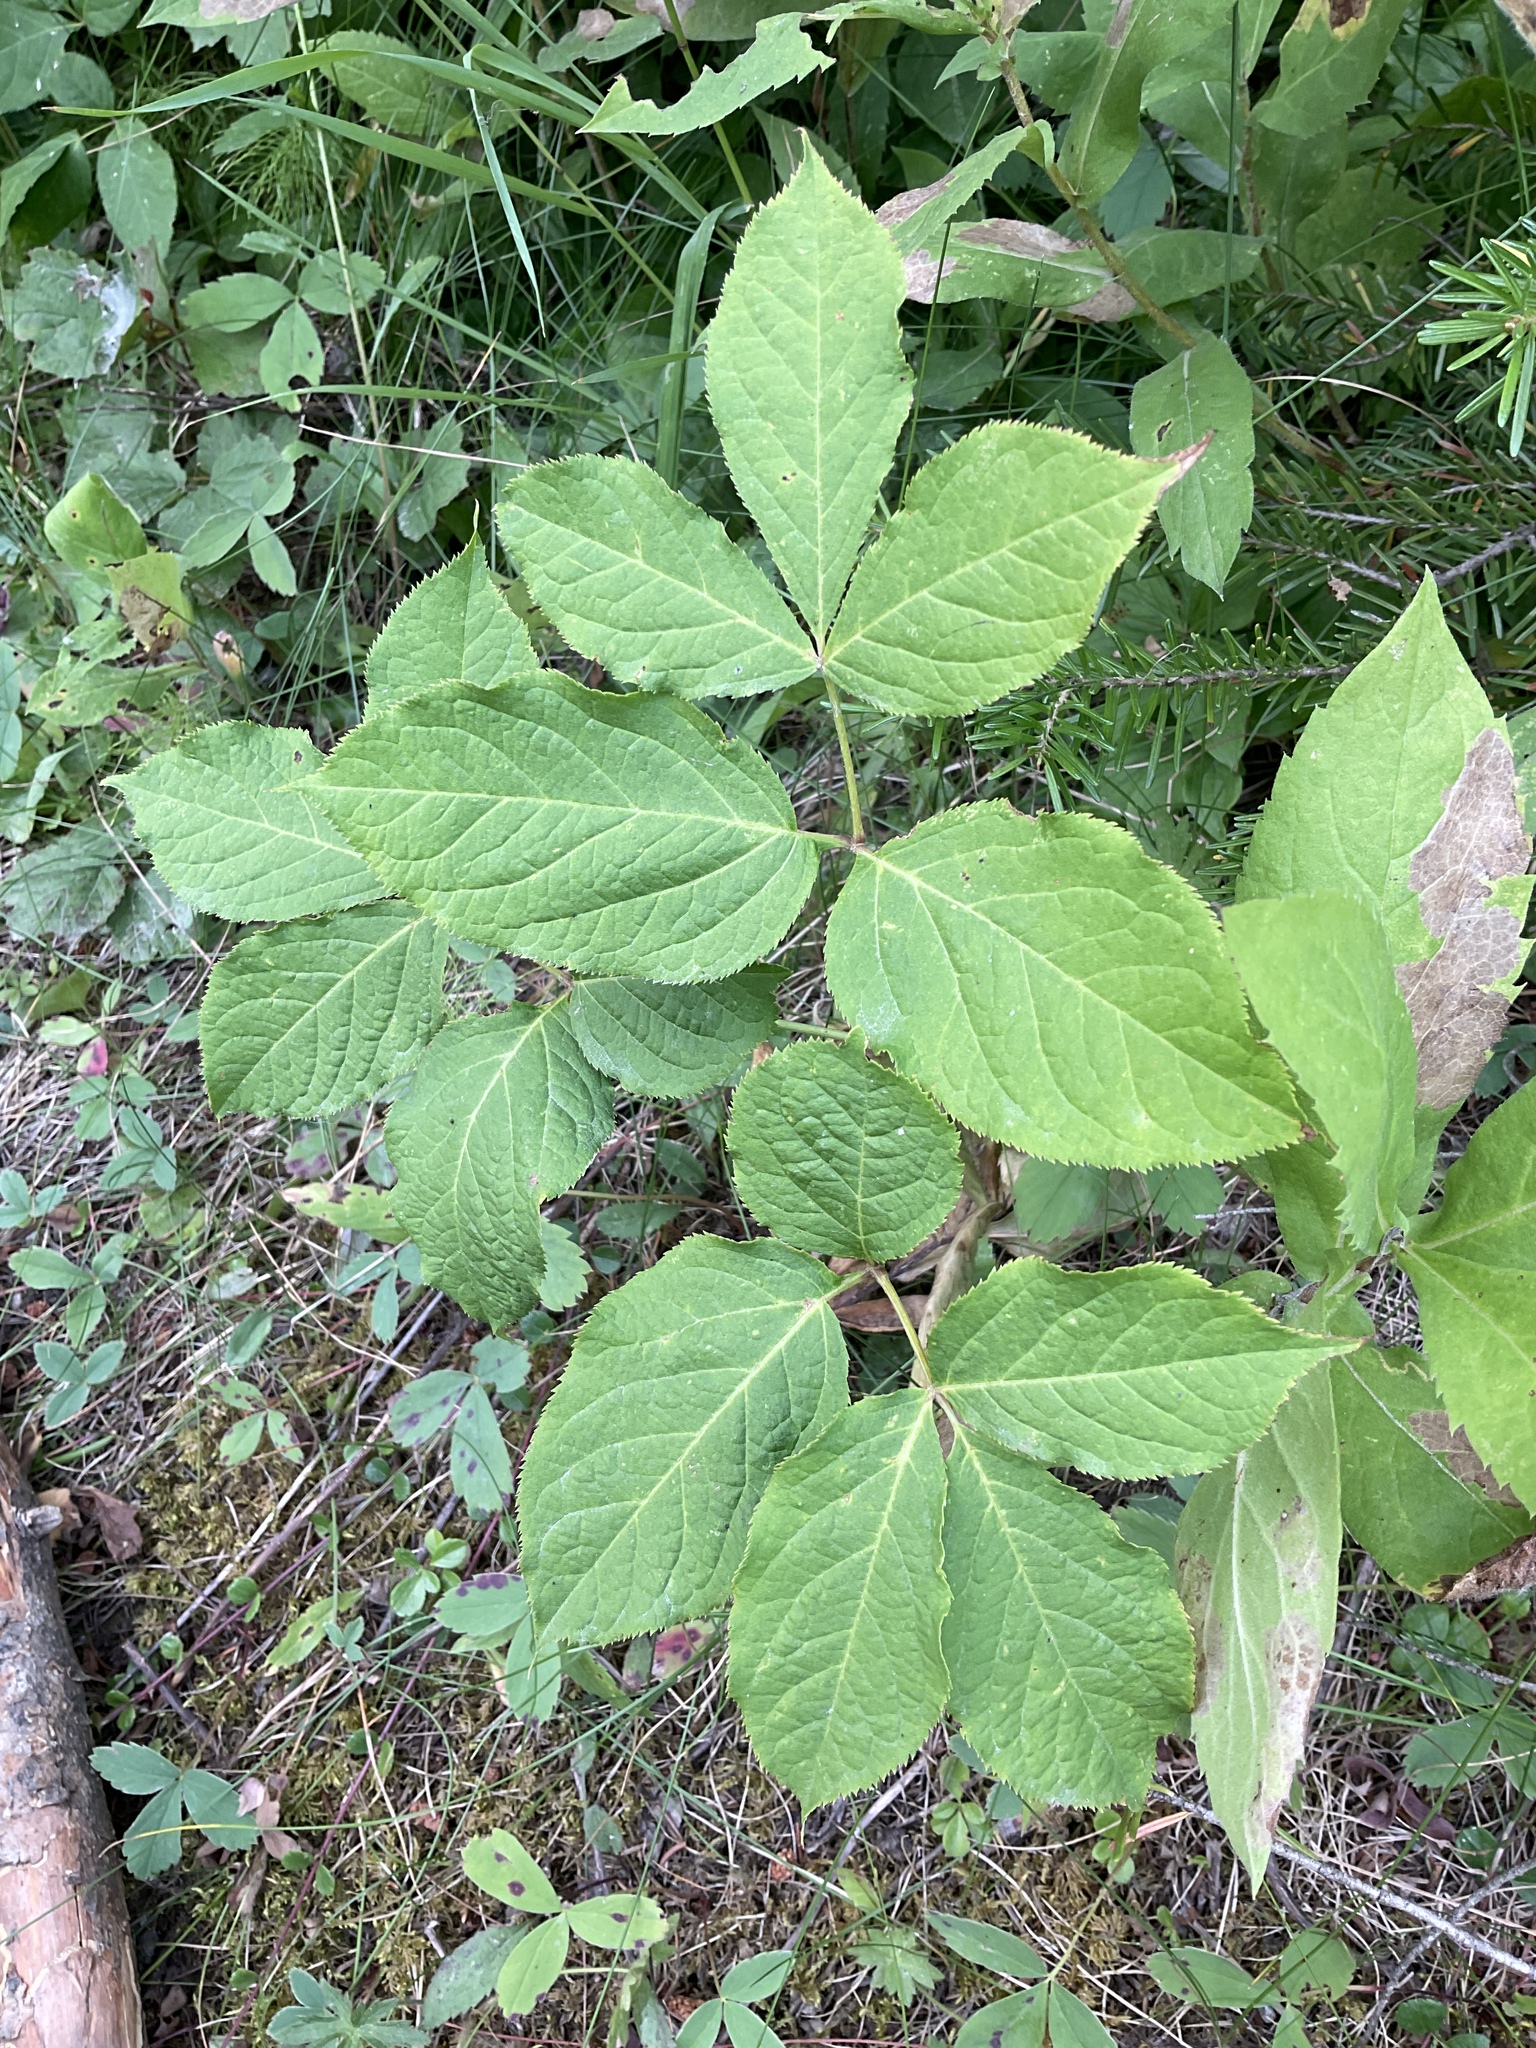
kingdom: Plantae
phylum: Tracheophyta
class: Magnoliopsida
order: Apiales
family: Araliaceae
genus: Aralia
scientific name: Aralia nudicaulis
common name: Wild sarsaparilla
